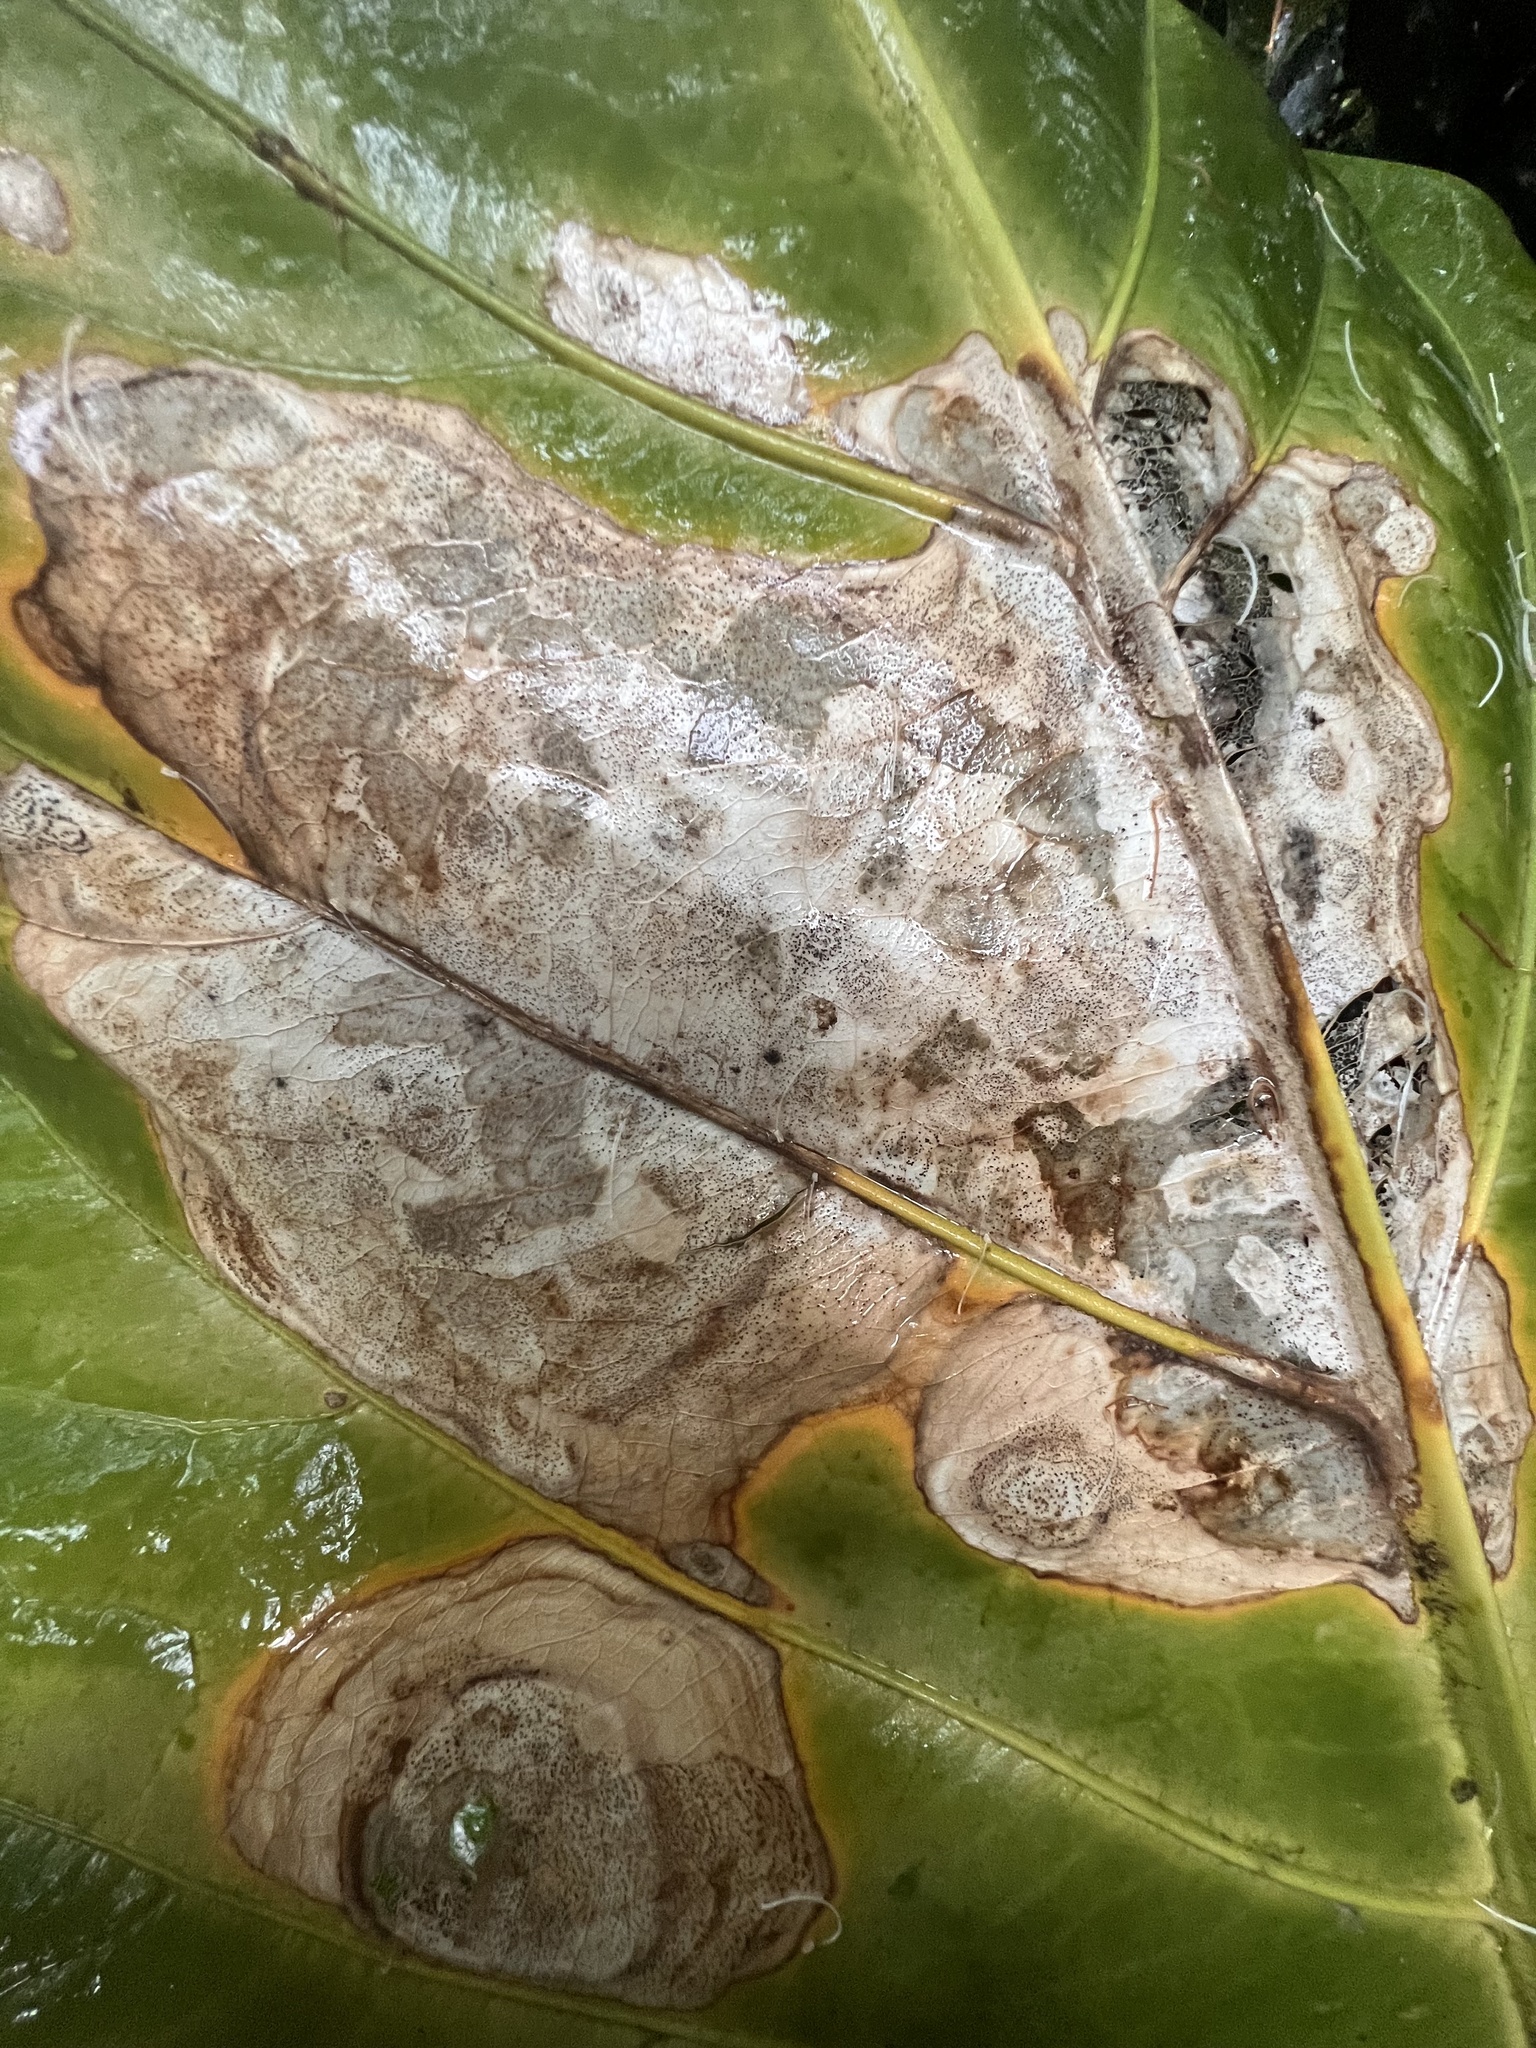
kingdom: Plantae
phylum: Tracheophyta
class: Liliopsida
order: Alismatales
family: Araceae
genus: Anthurium
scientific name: Anthurium salvinii
